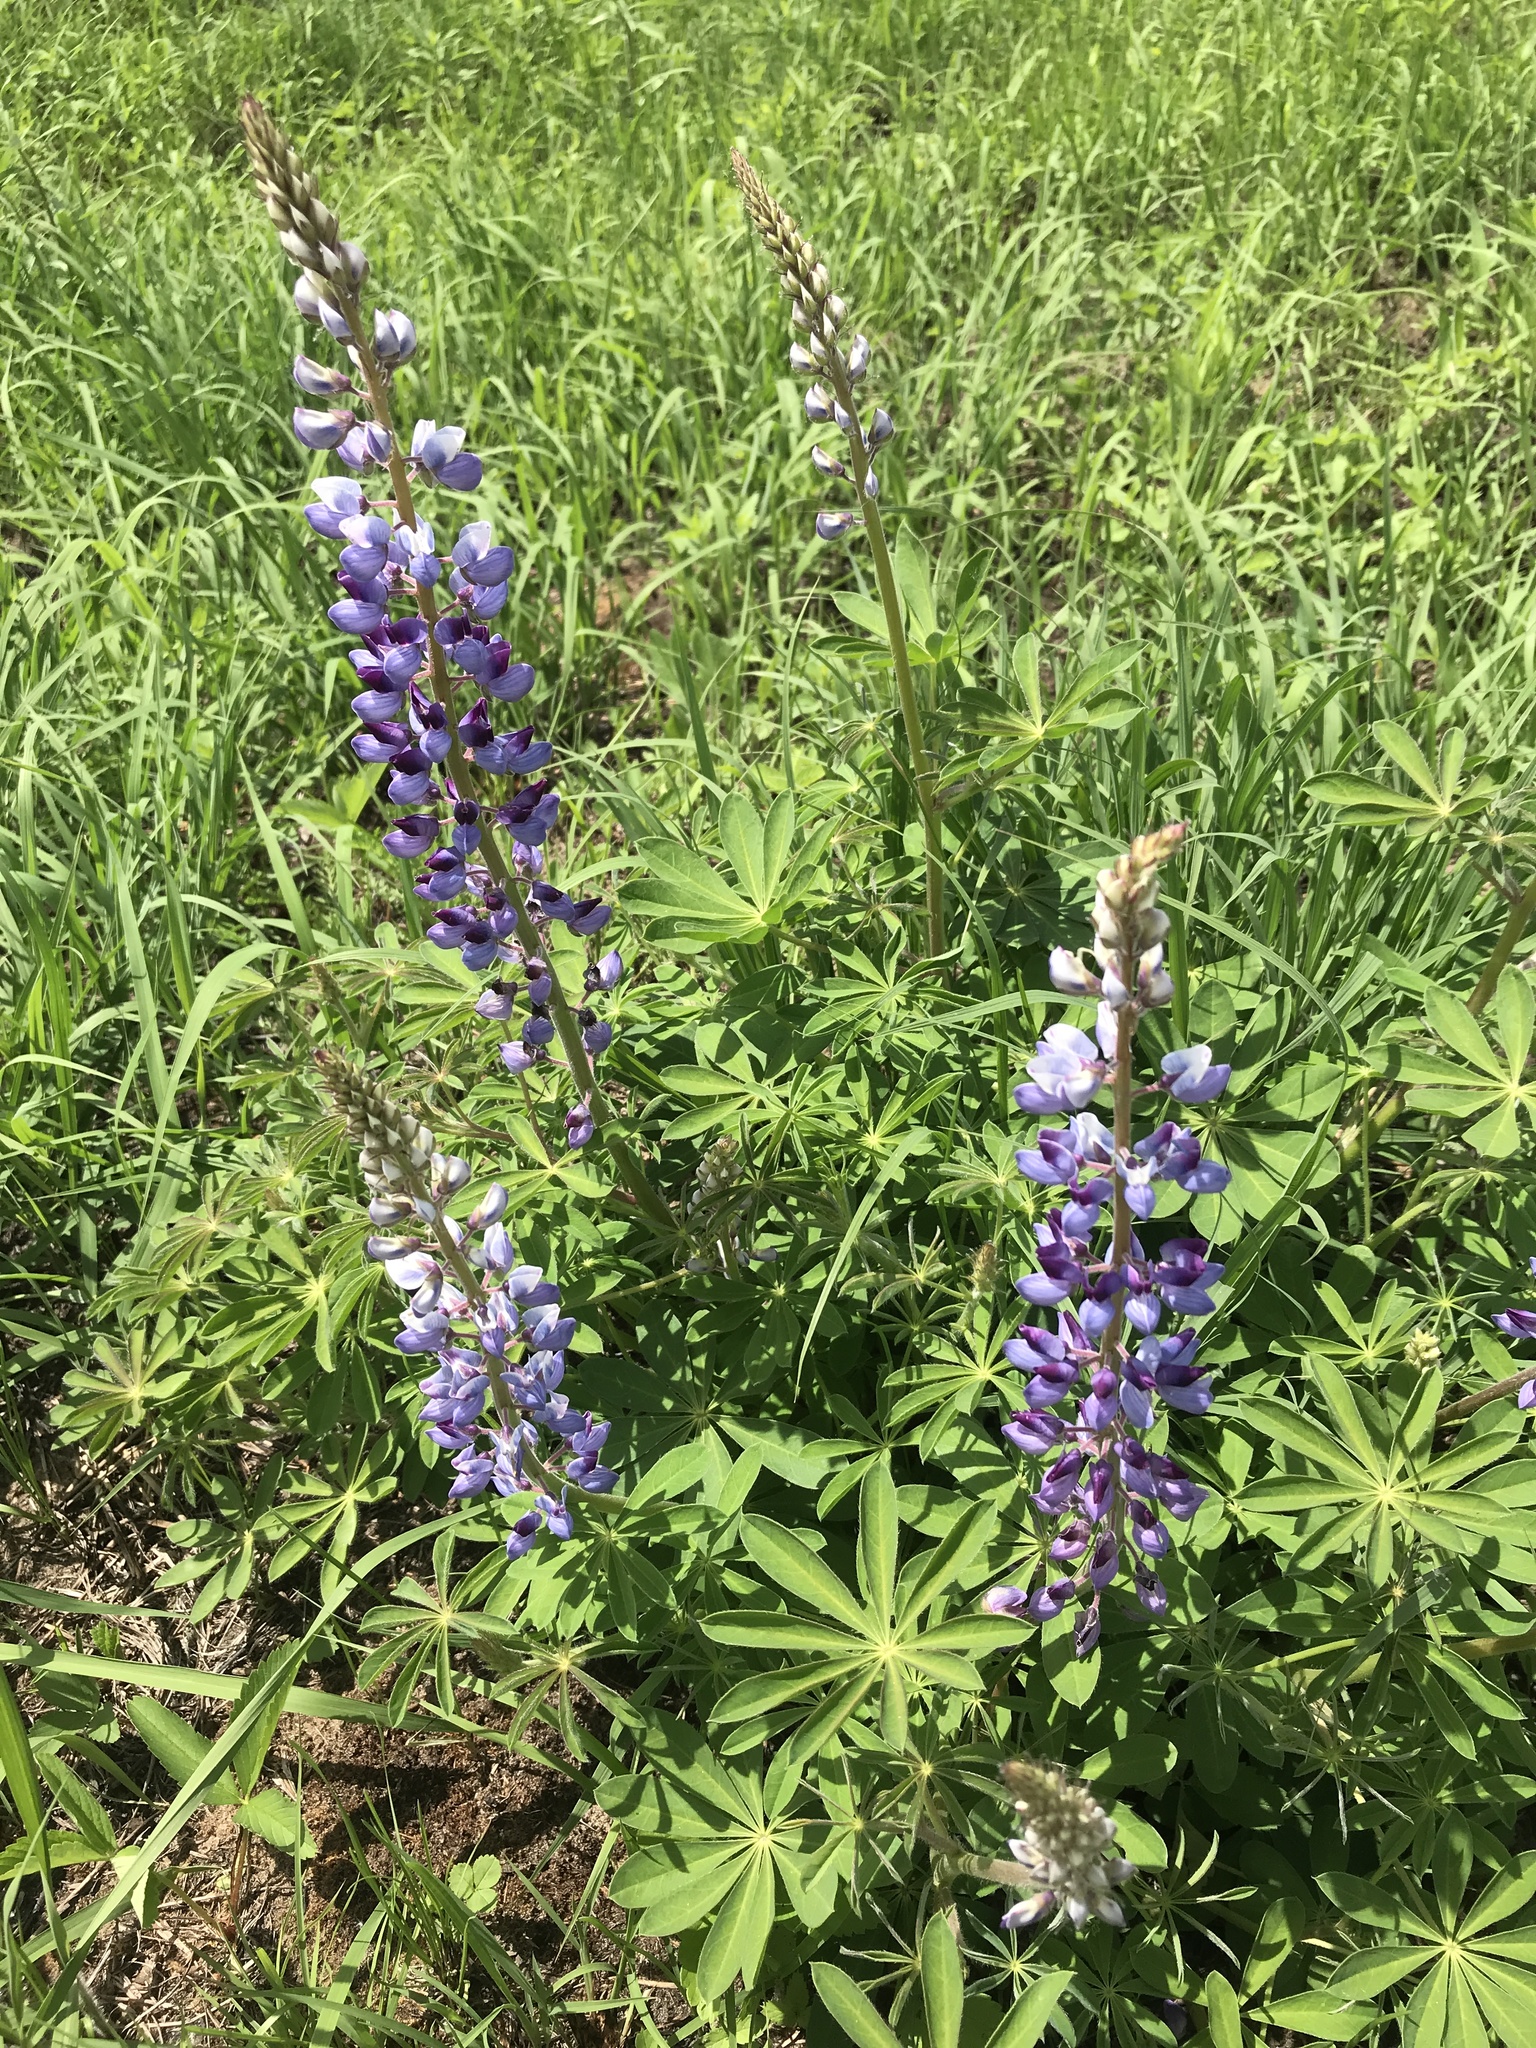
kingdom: Plantae
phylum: Tracheophyta
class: Magnoliopsida
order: Fabales
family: Fabaceae
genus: Lupinus
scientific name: Lupinus perennis
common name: Sundial lupine
